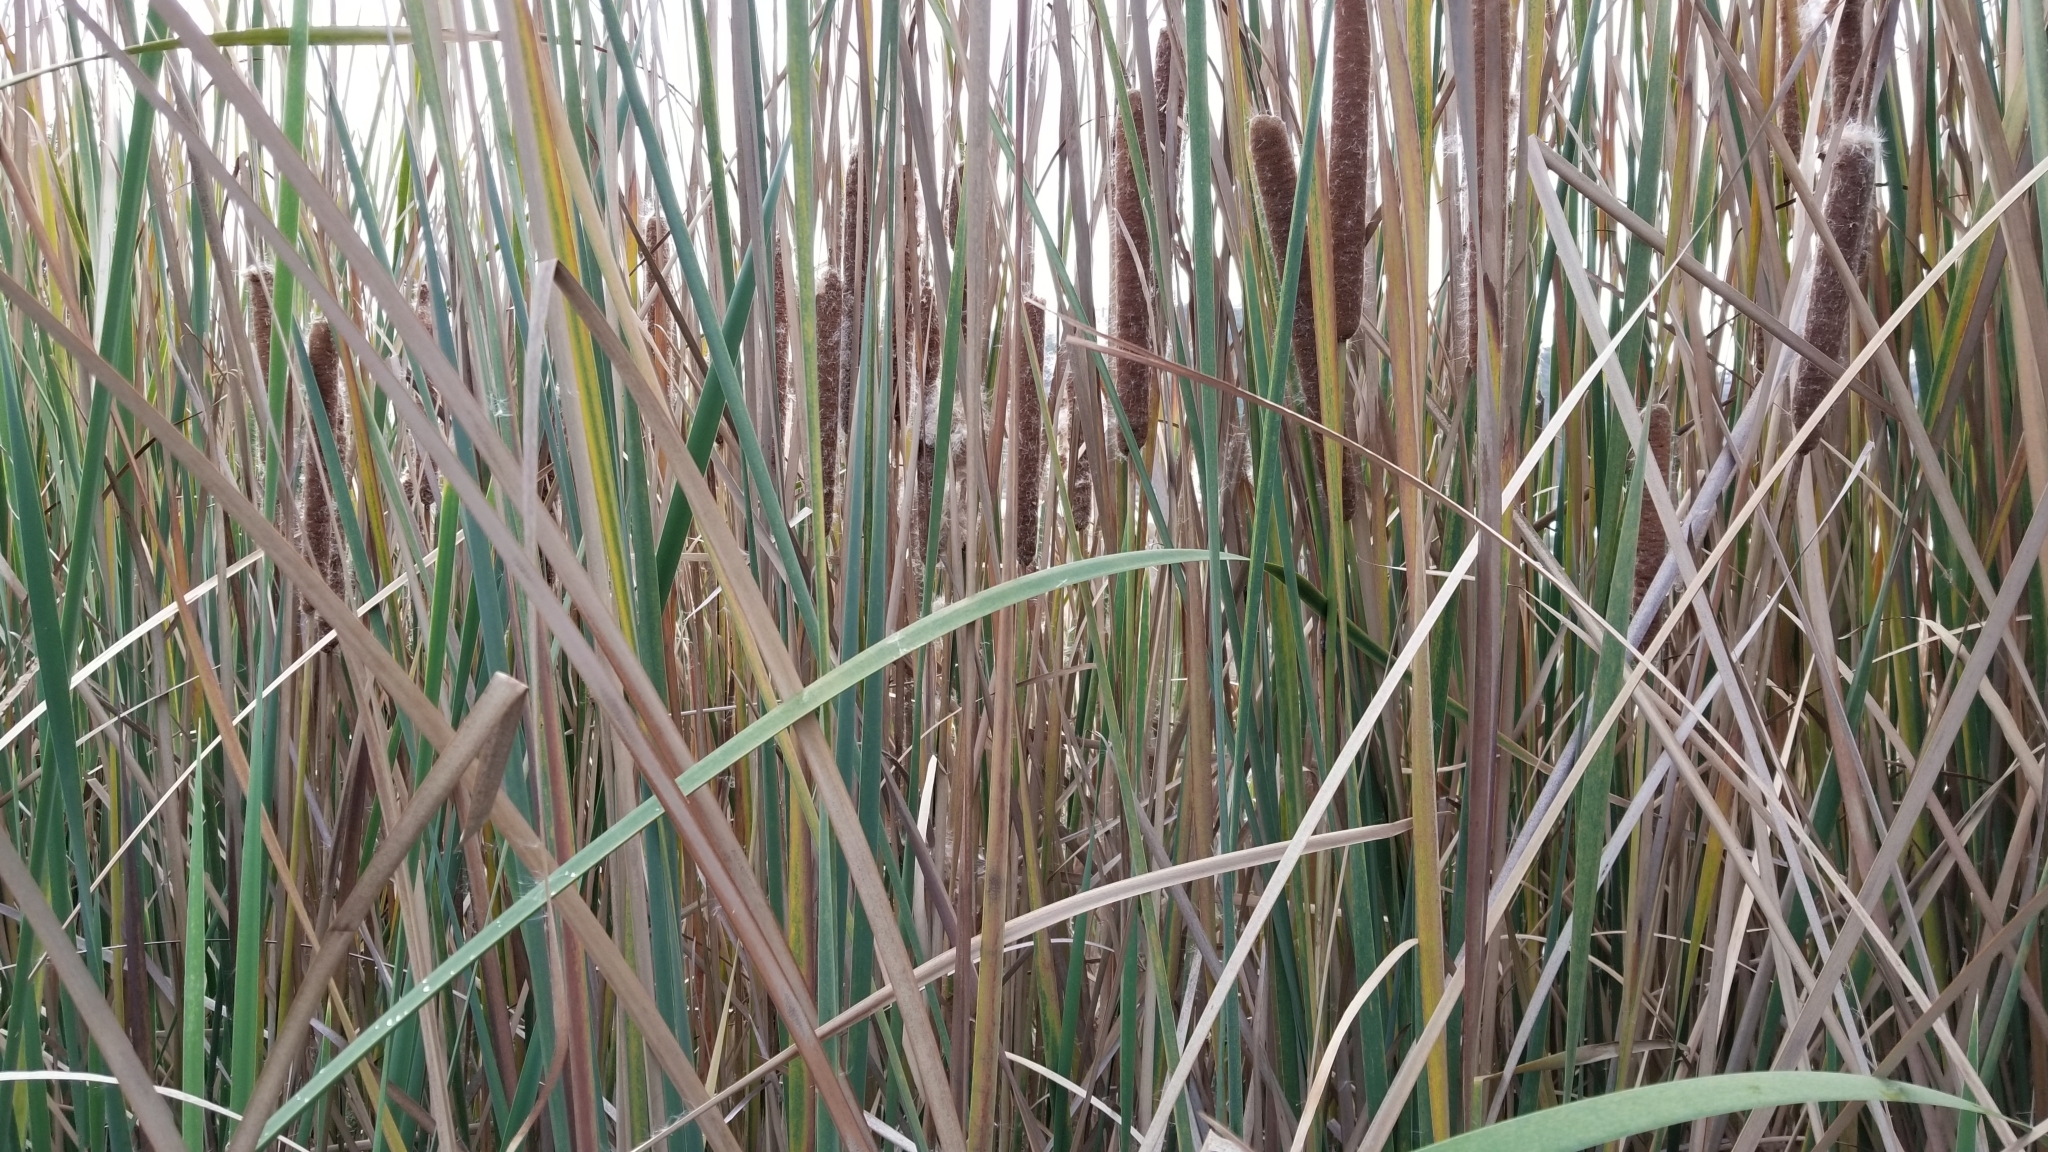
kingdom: Plantae
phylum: Tracheophyta
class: Liliopsida
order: Poales
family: Typhaceae
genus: Typha
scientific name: Typha domingensis
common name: Southern cattail
